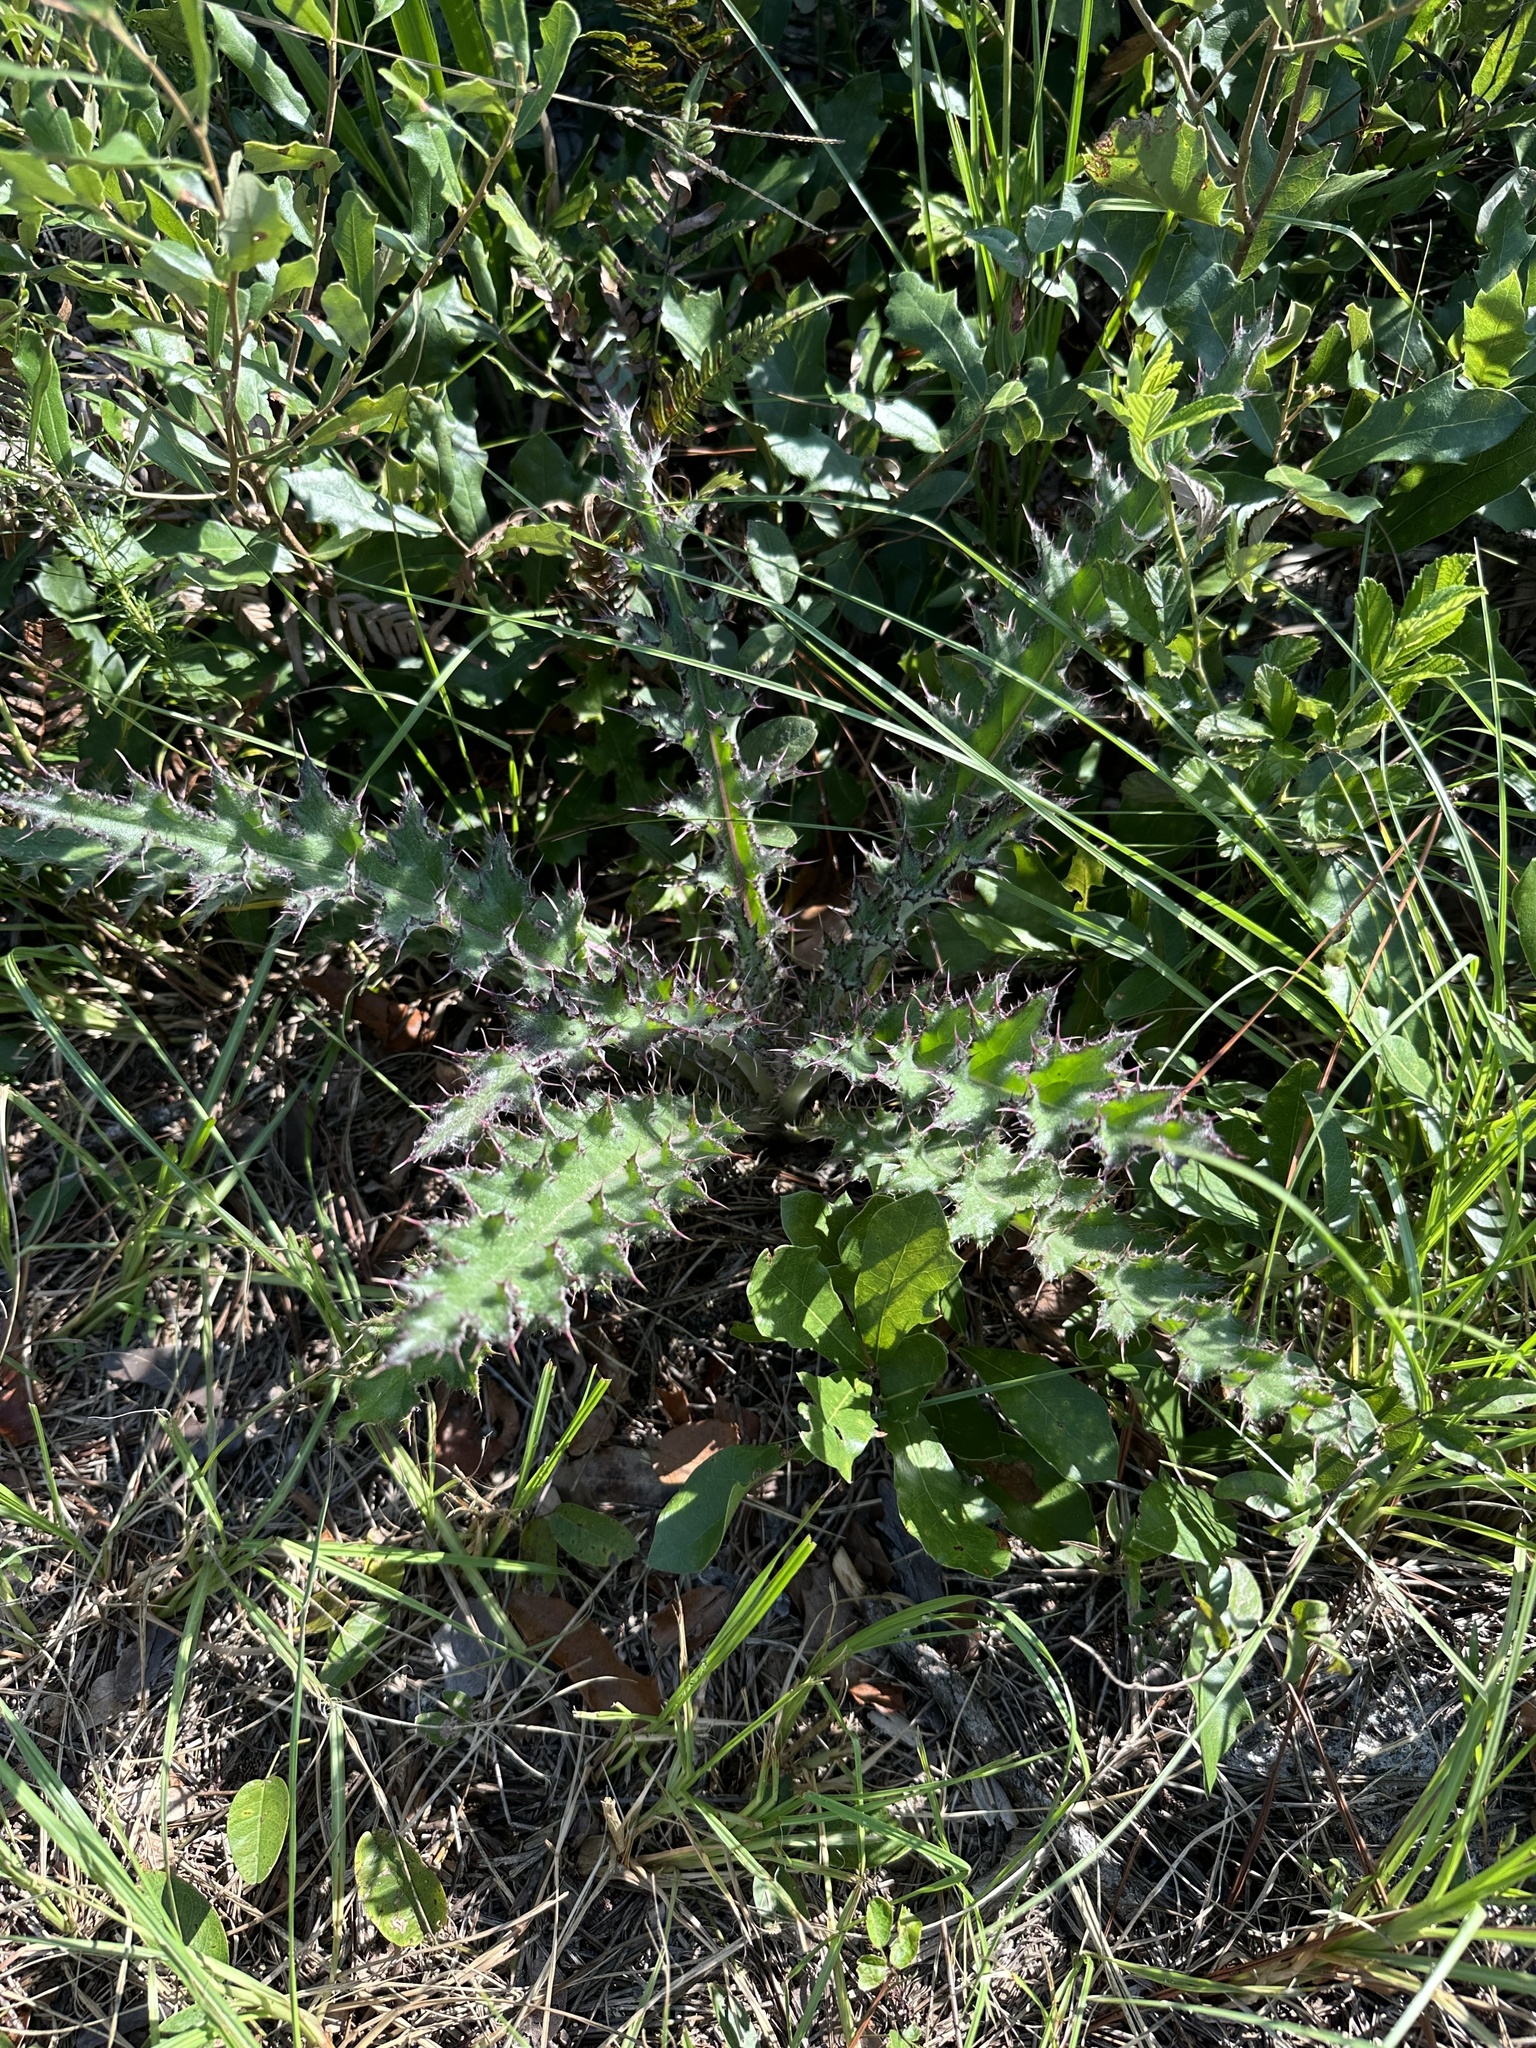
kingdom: Plantae
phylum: Tracheophyta
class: Magnoliopsida
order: Asterales
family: Asteraceae
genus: Cirsium
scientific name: Cirsium horridulum
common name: Bristly thistle
